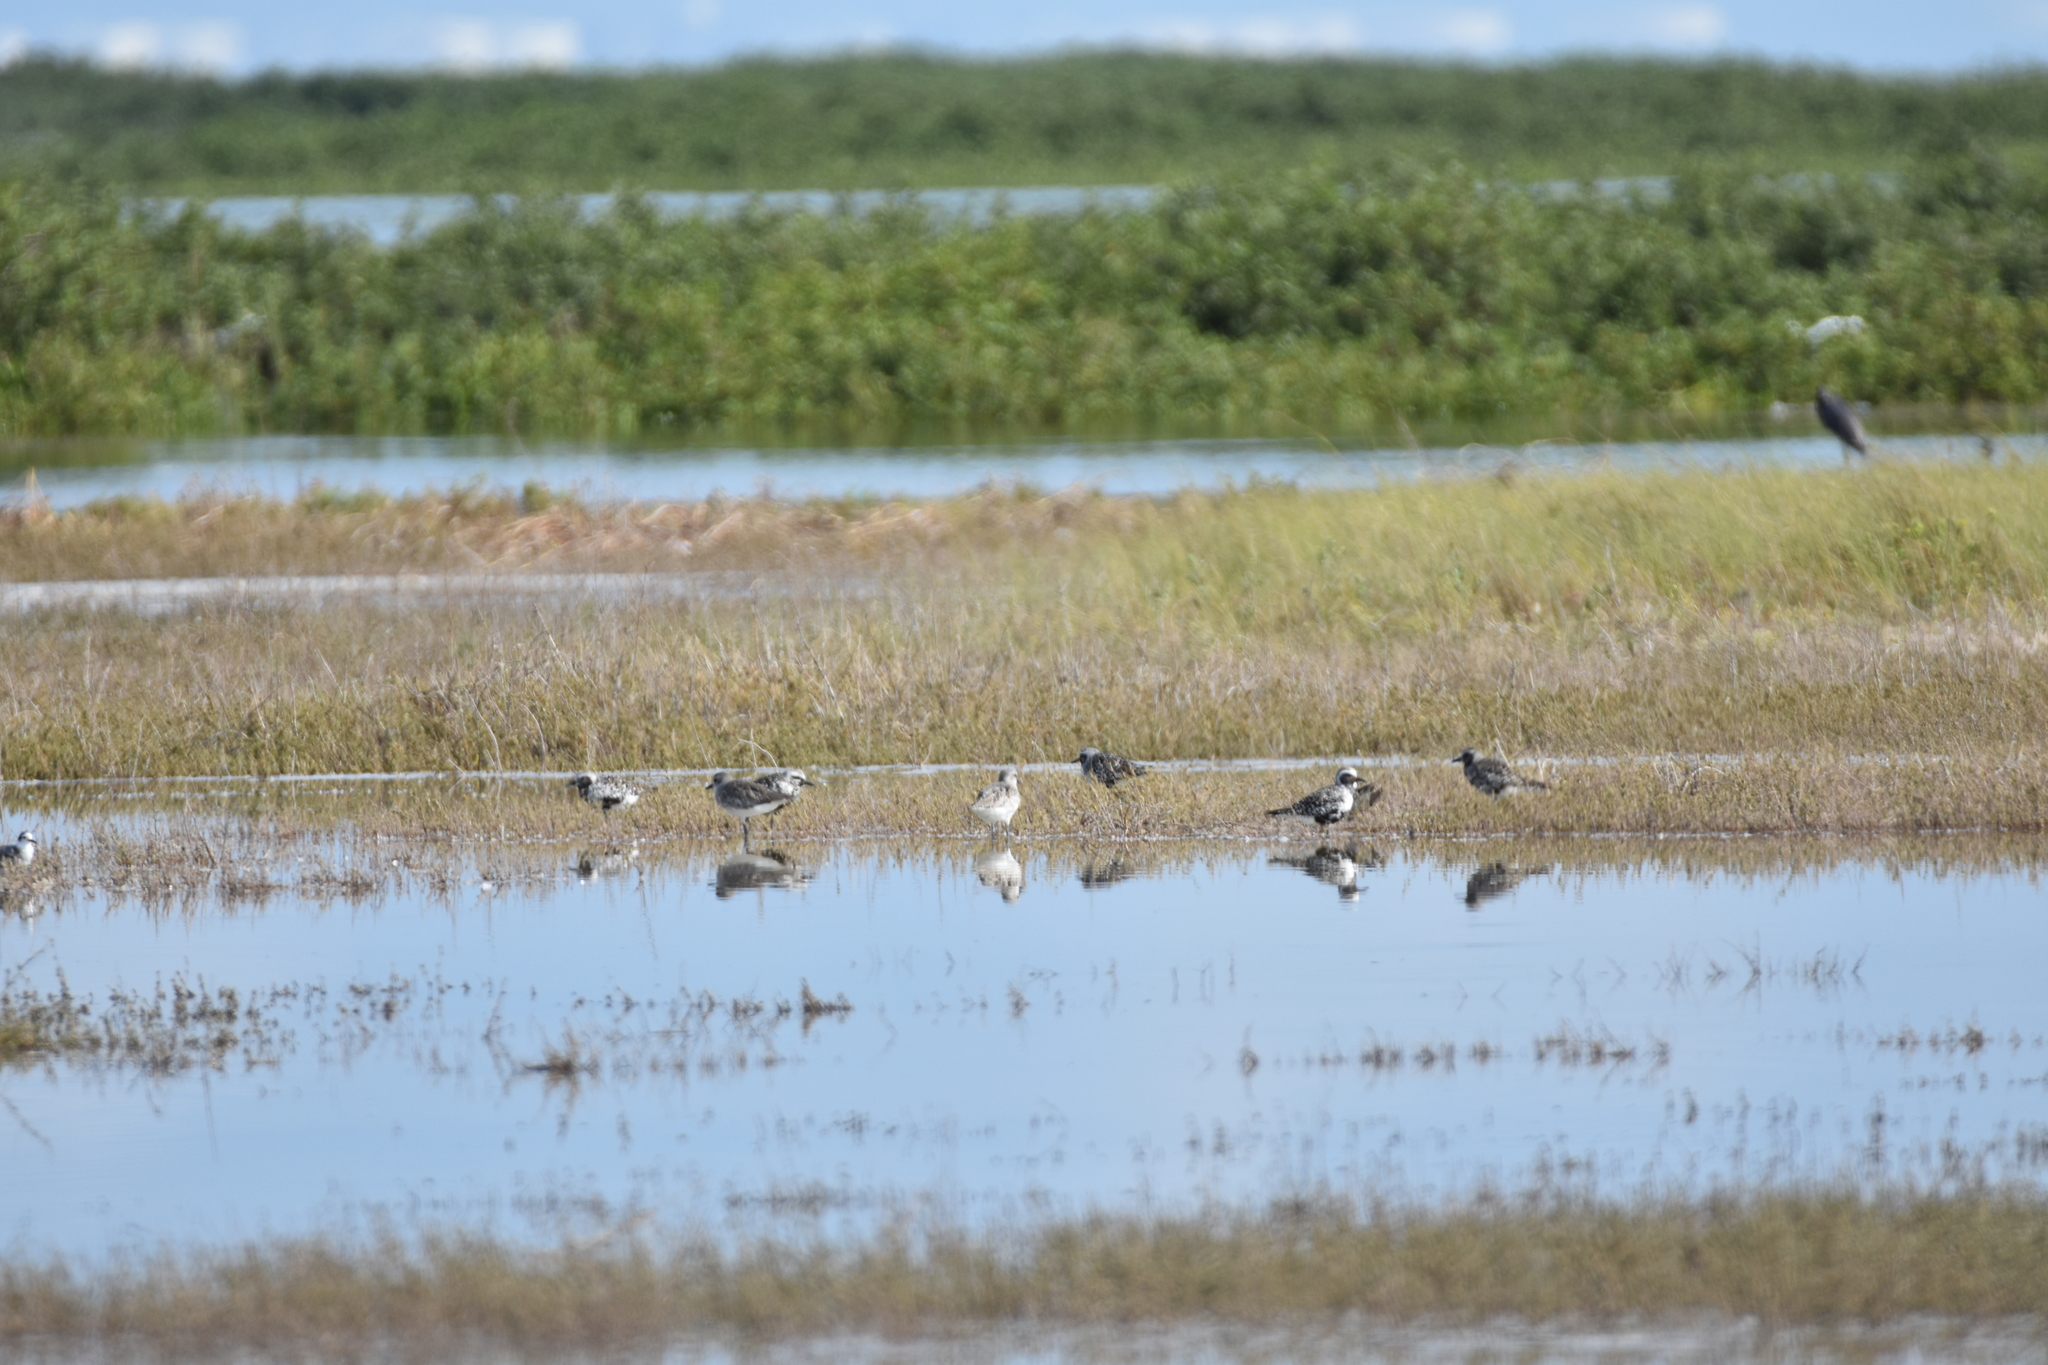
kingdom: Animalia
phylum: Chordata
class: Aves
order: Charadriiformes
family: Charadriidae
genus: Pluvialis
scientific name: Pluvialis squatarola
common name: Grey plover
